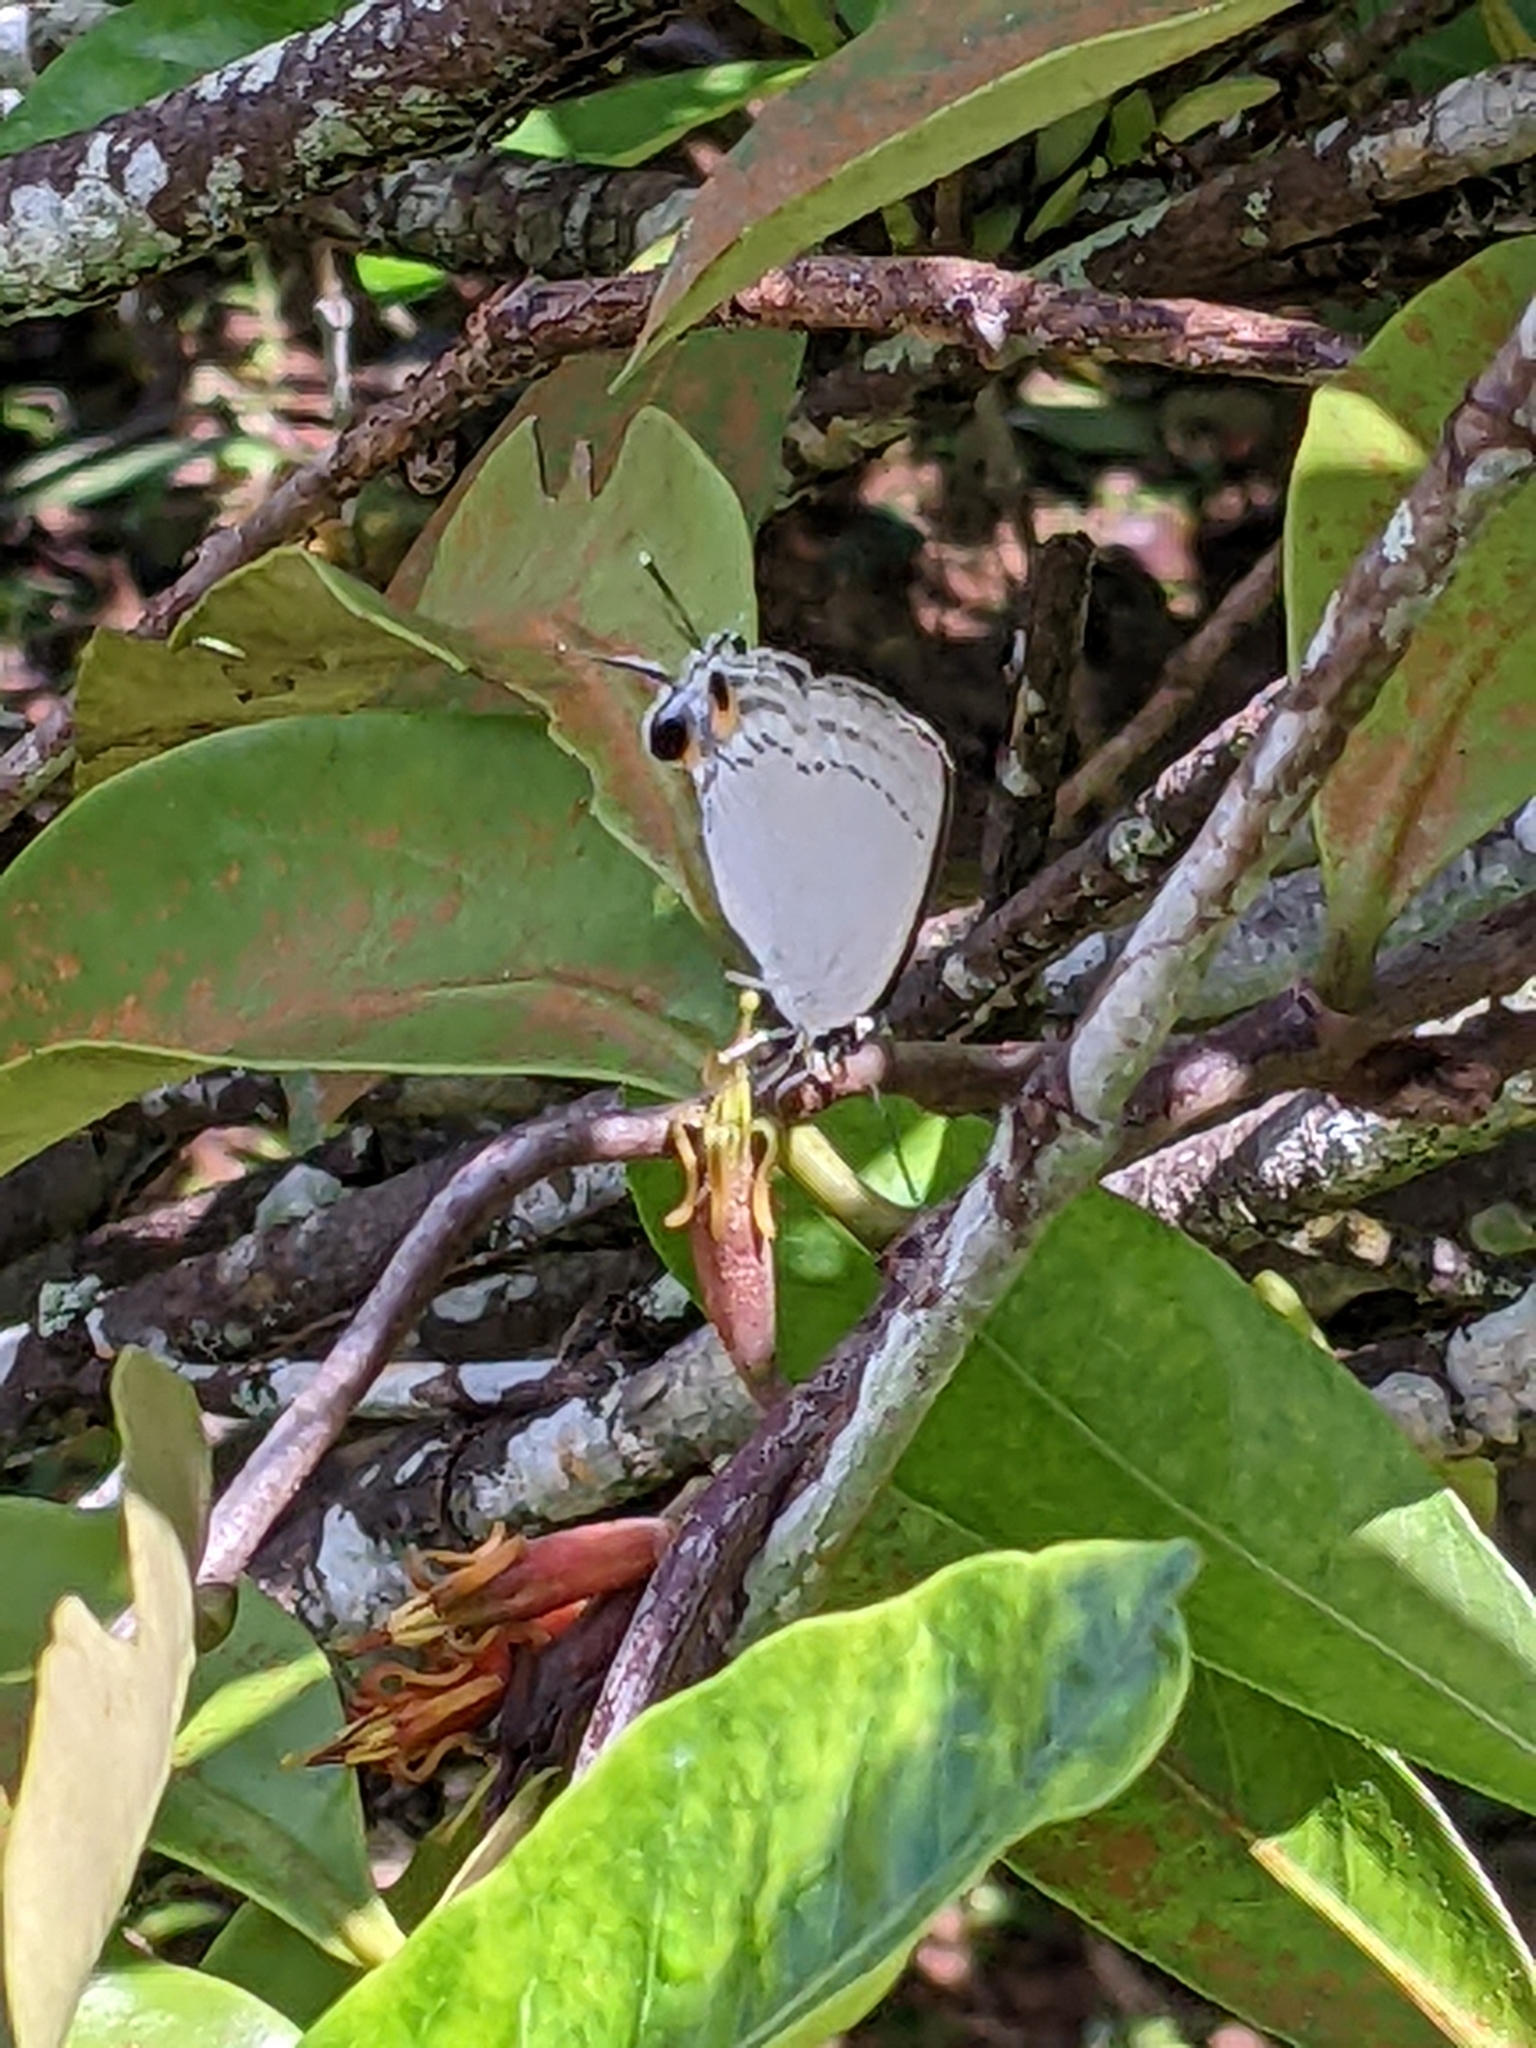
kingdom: Animalia
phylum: Arthropoda
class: Insecta
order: Lepidoptera
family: Lycaenidae
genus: Tajuria
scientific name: Tajuria cippus
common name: Peacock royal
